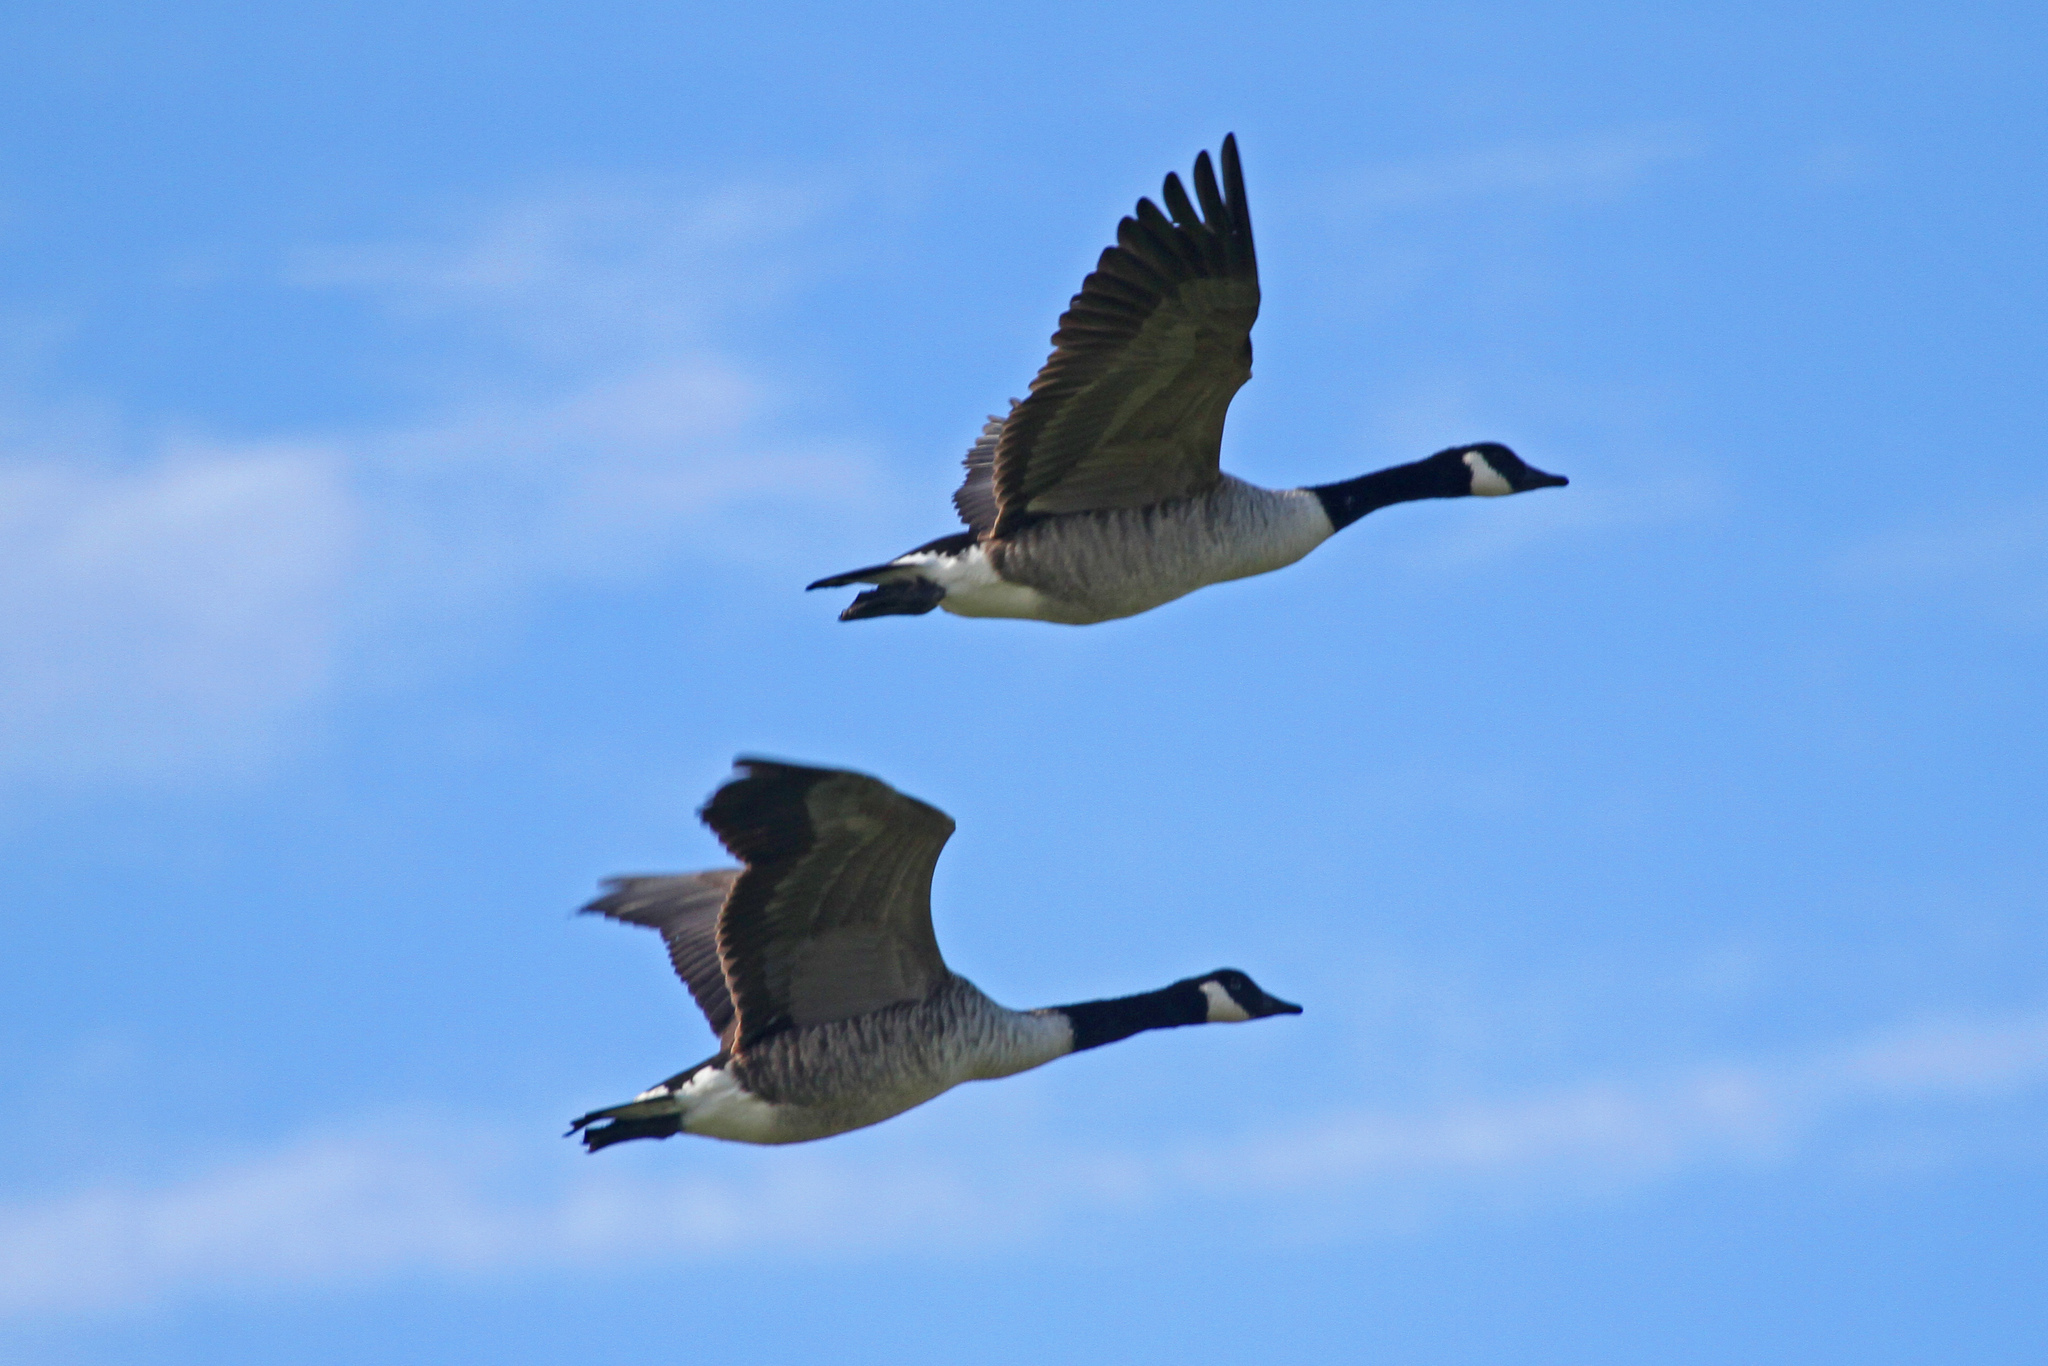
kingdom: Animalia
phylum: Chordata
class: Aves
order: Anseriformes
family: Anatidae
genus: Branta
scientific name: Branta canadensis
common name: Canada goose
